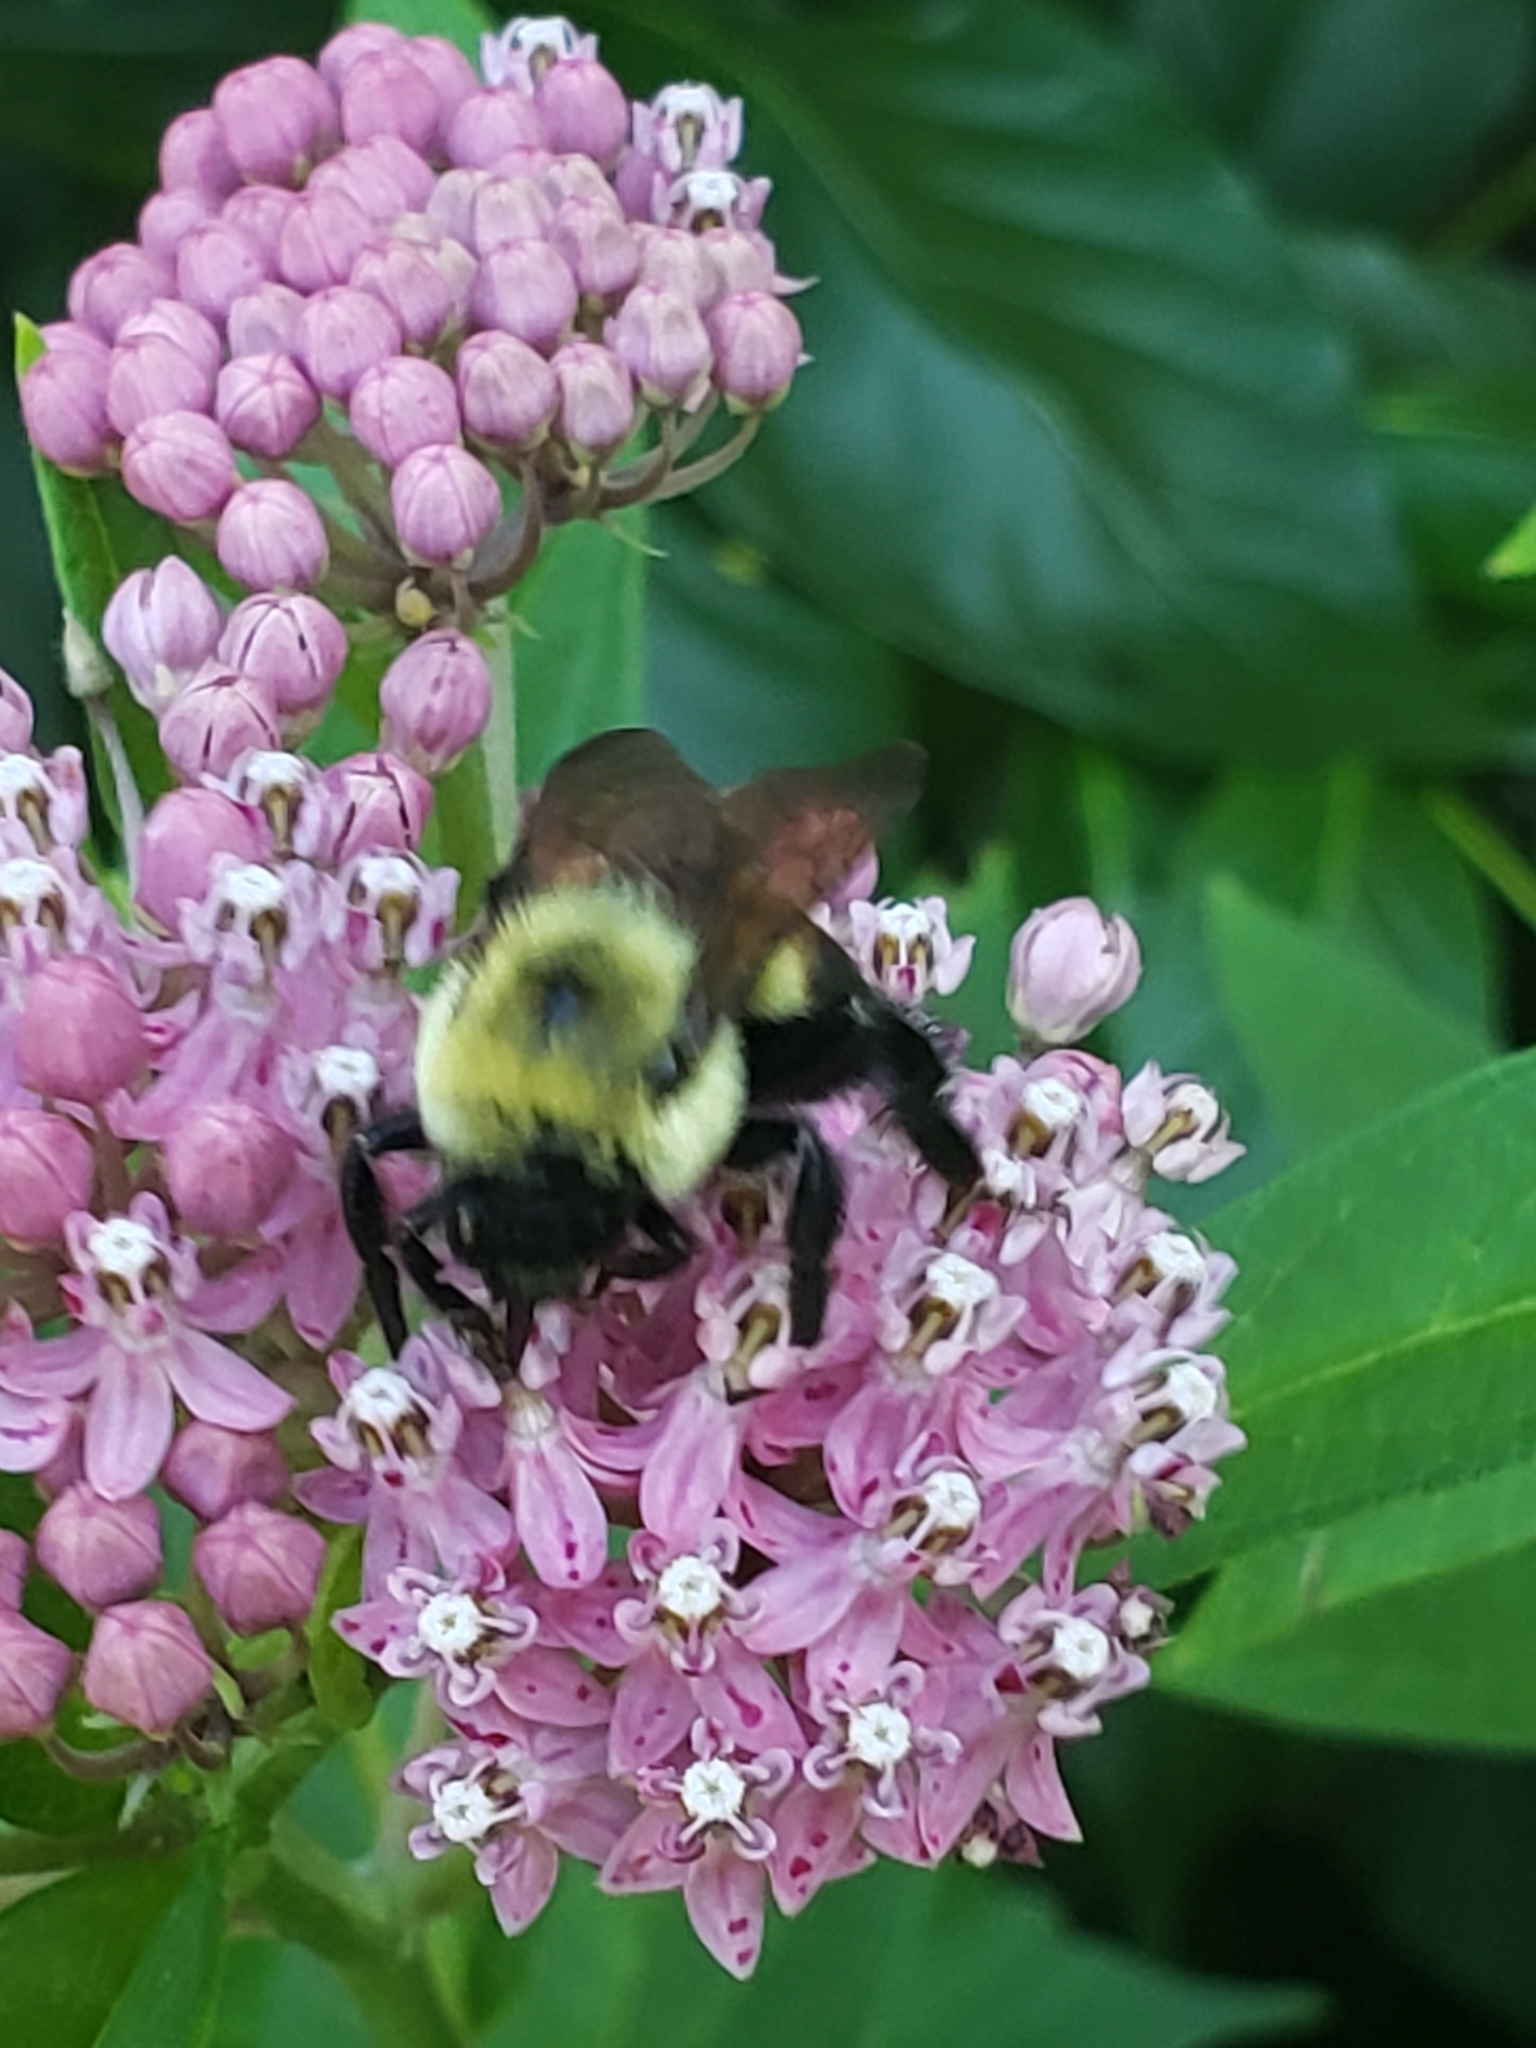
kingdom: Animalia
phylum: Arthropoda
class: Insecta
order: Hymenoptera
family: Apidae
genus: Bombus
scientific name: Bombus griseocollis
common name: Brown-belted bumble bee
